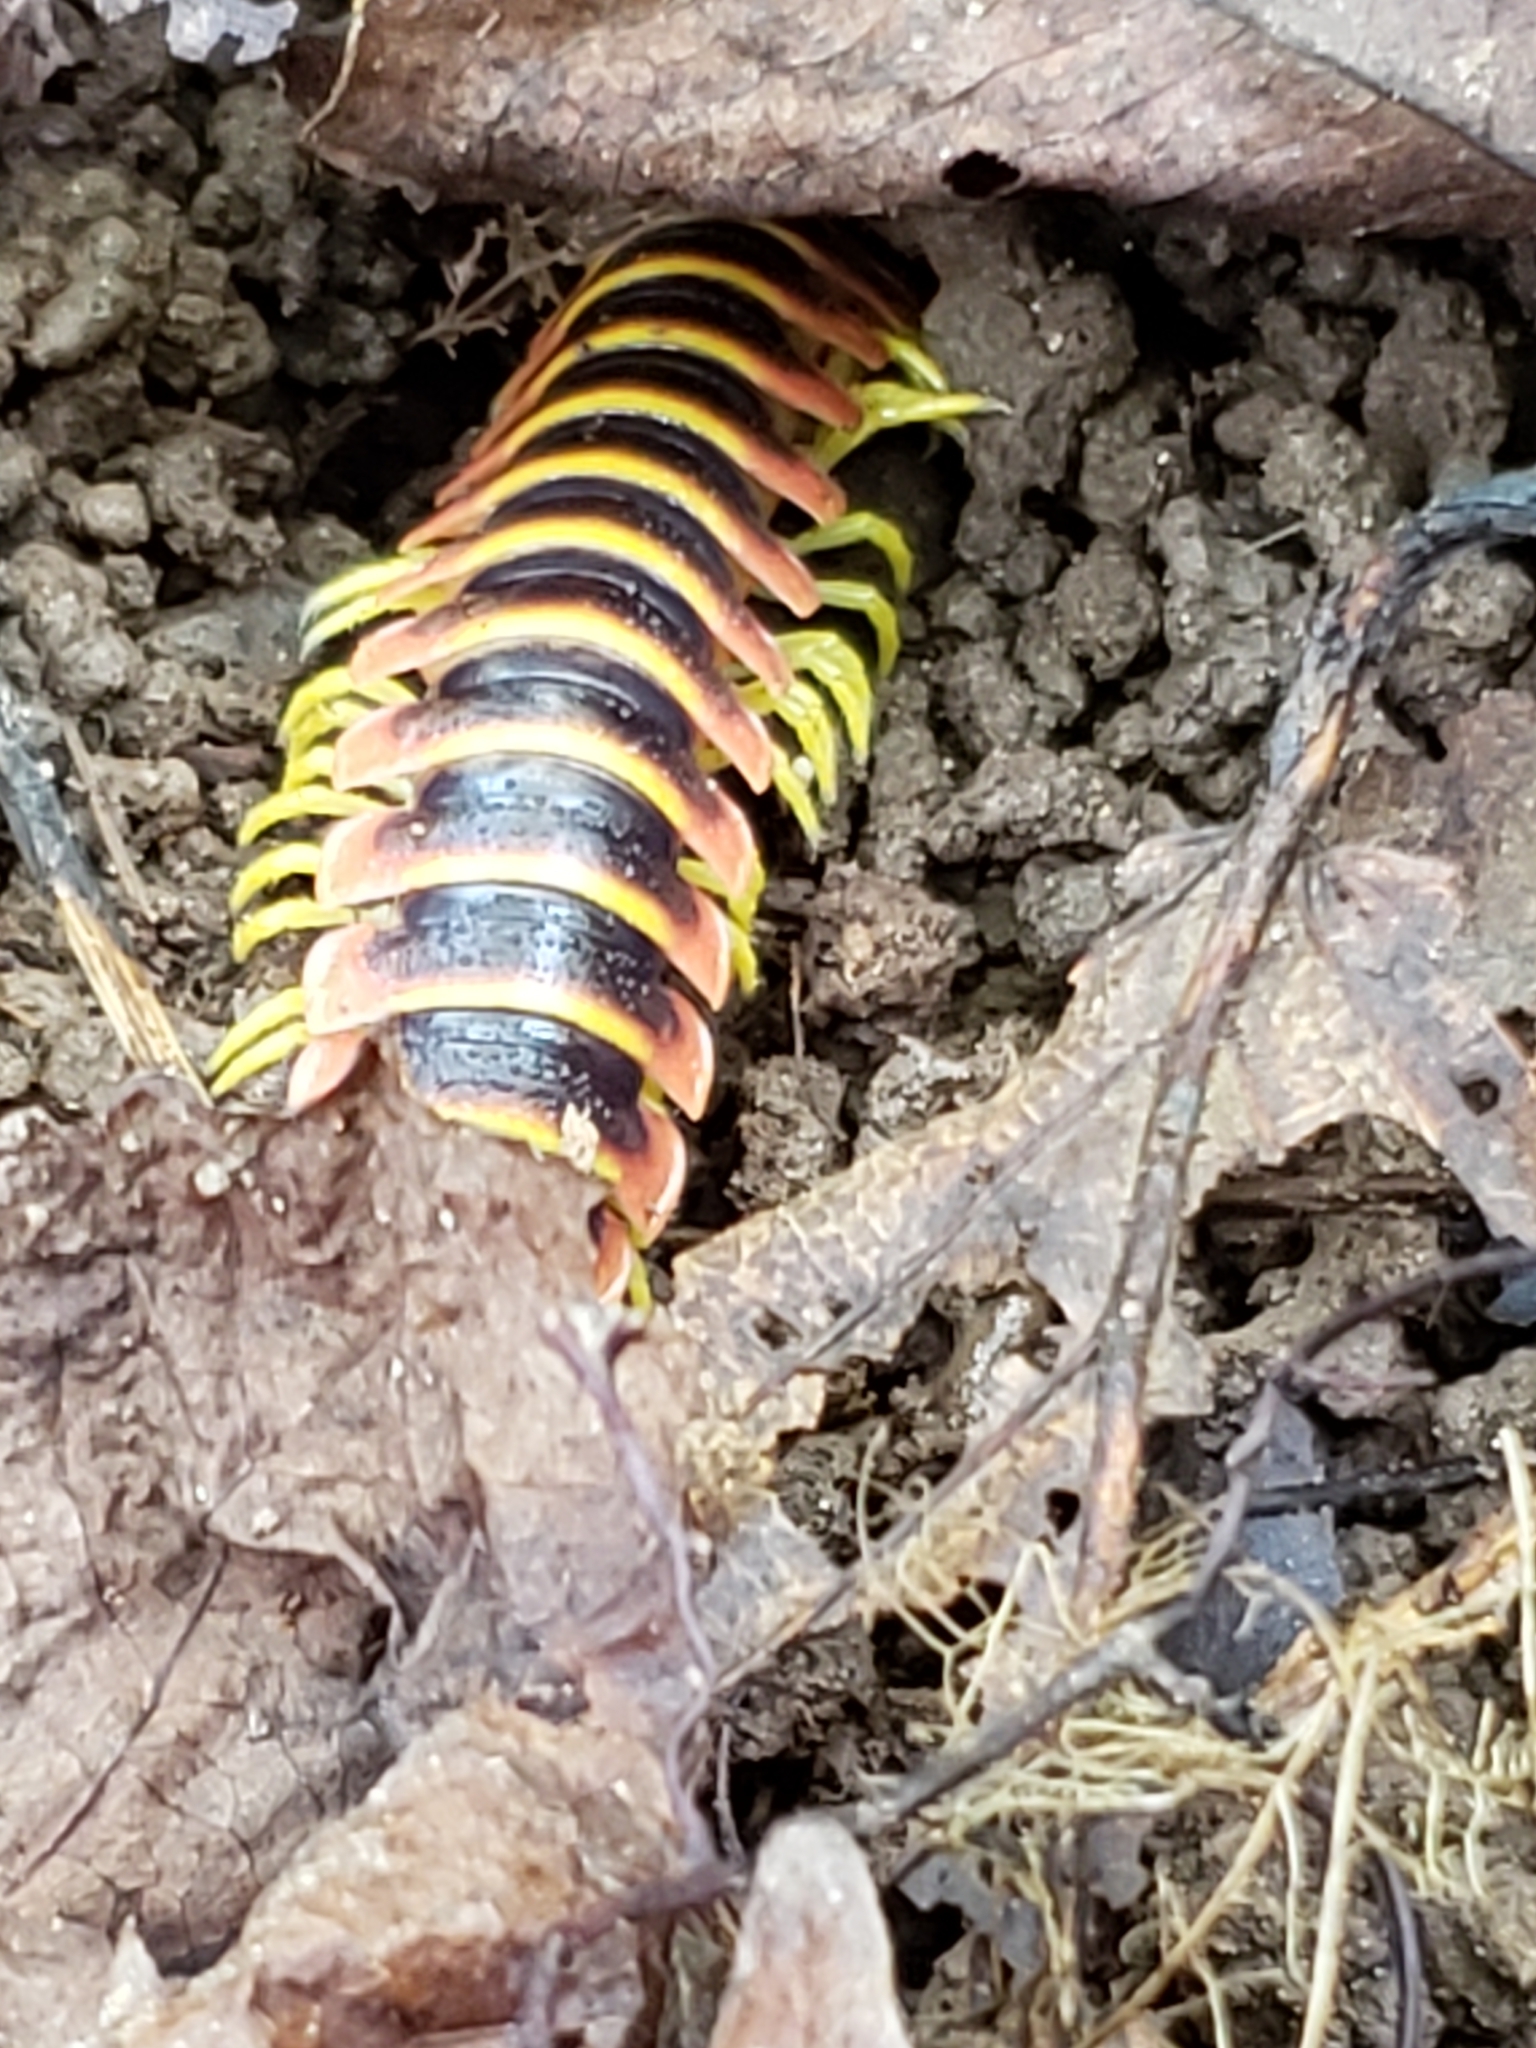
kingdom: Animalia
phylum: Arthropoda
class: Diplopoda
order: Polydesmida
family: Xystodesmidae
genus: Apheloria
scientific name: Apheloria virginiensis
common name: Black-and-gold flat millipede
